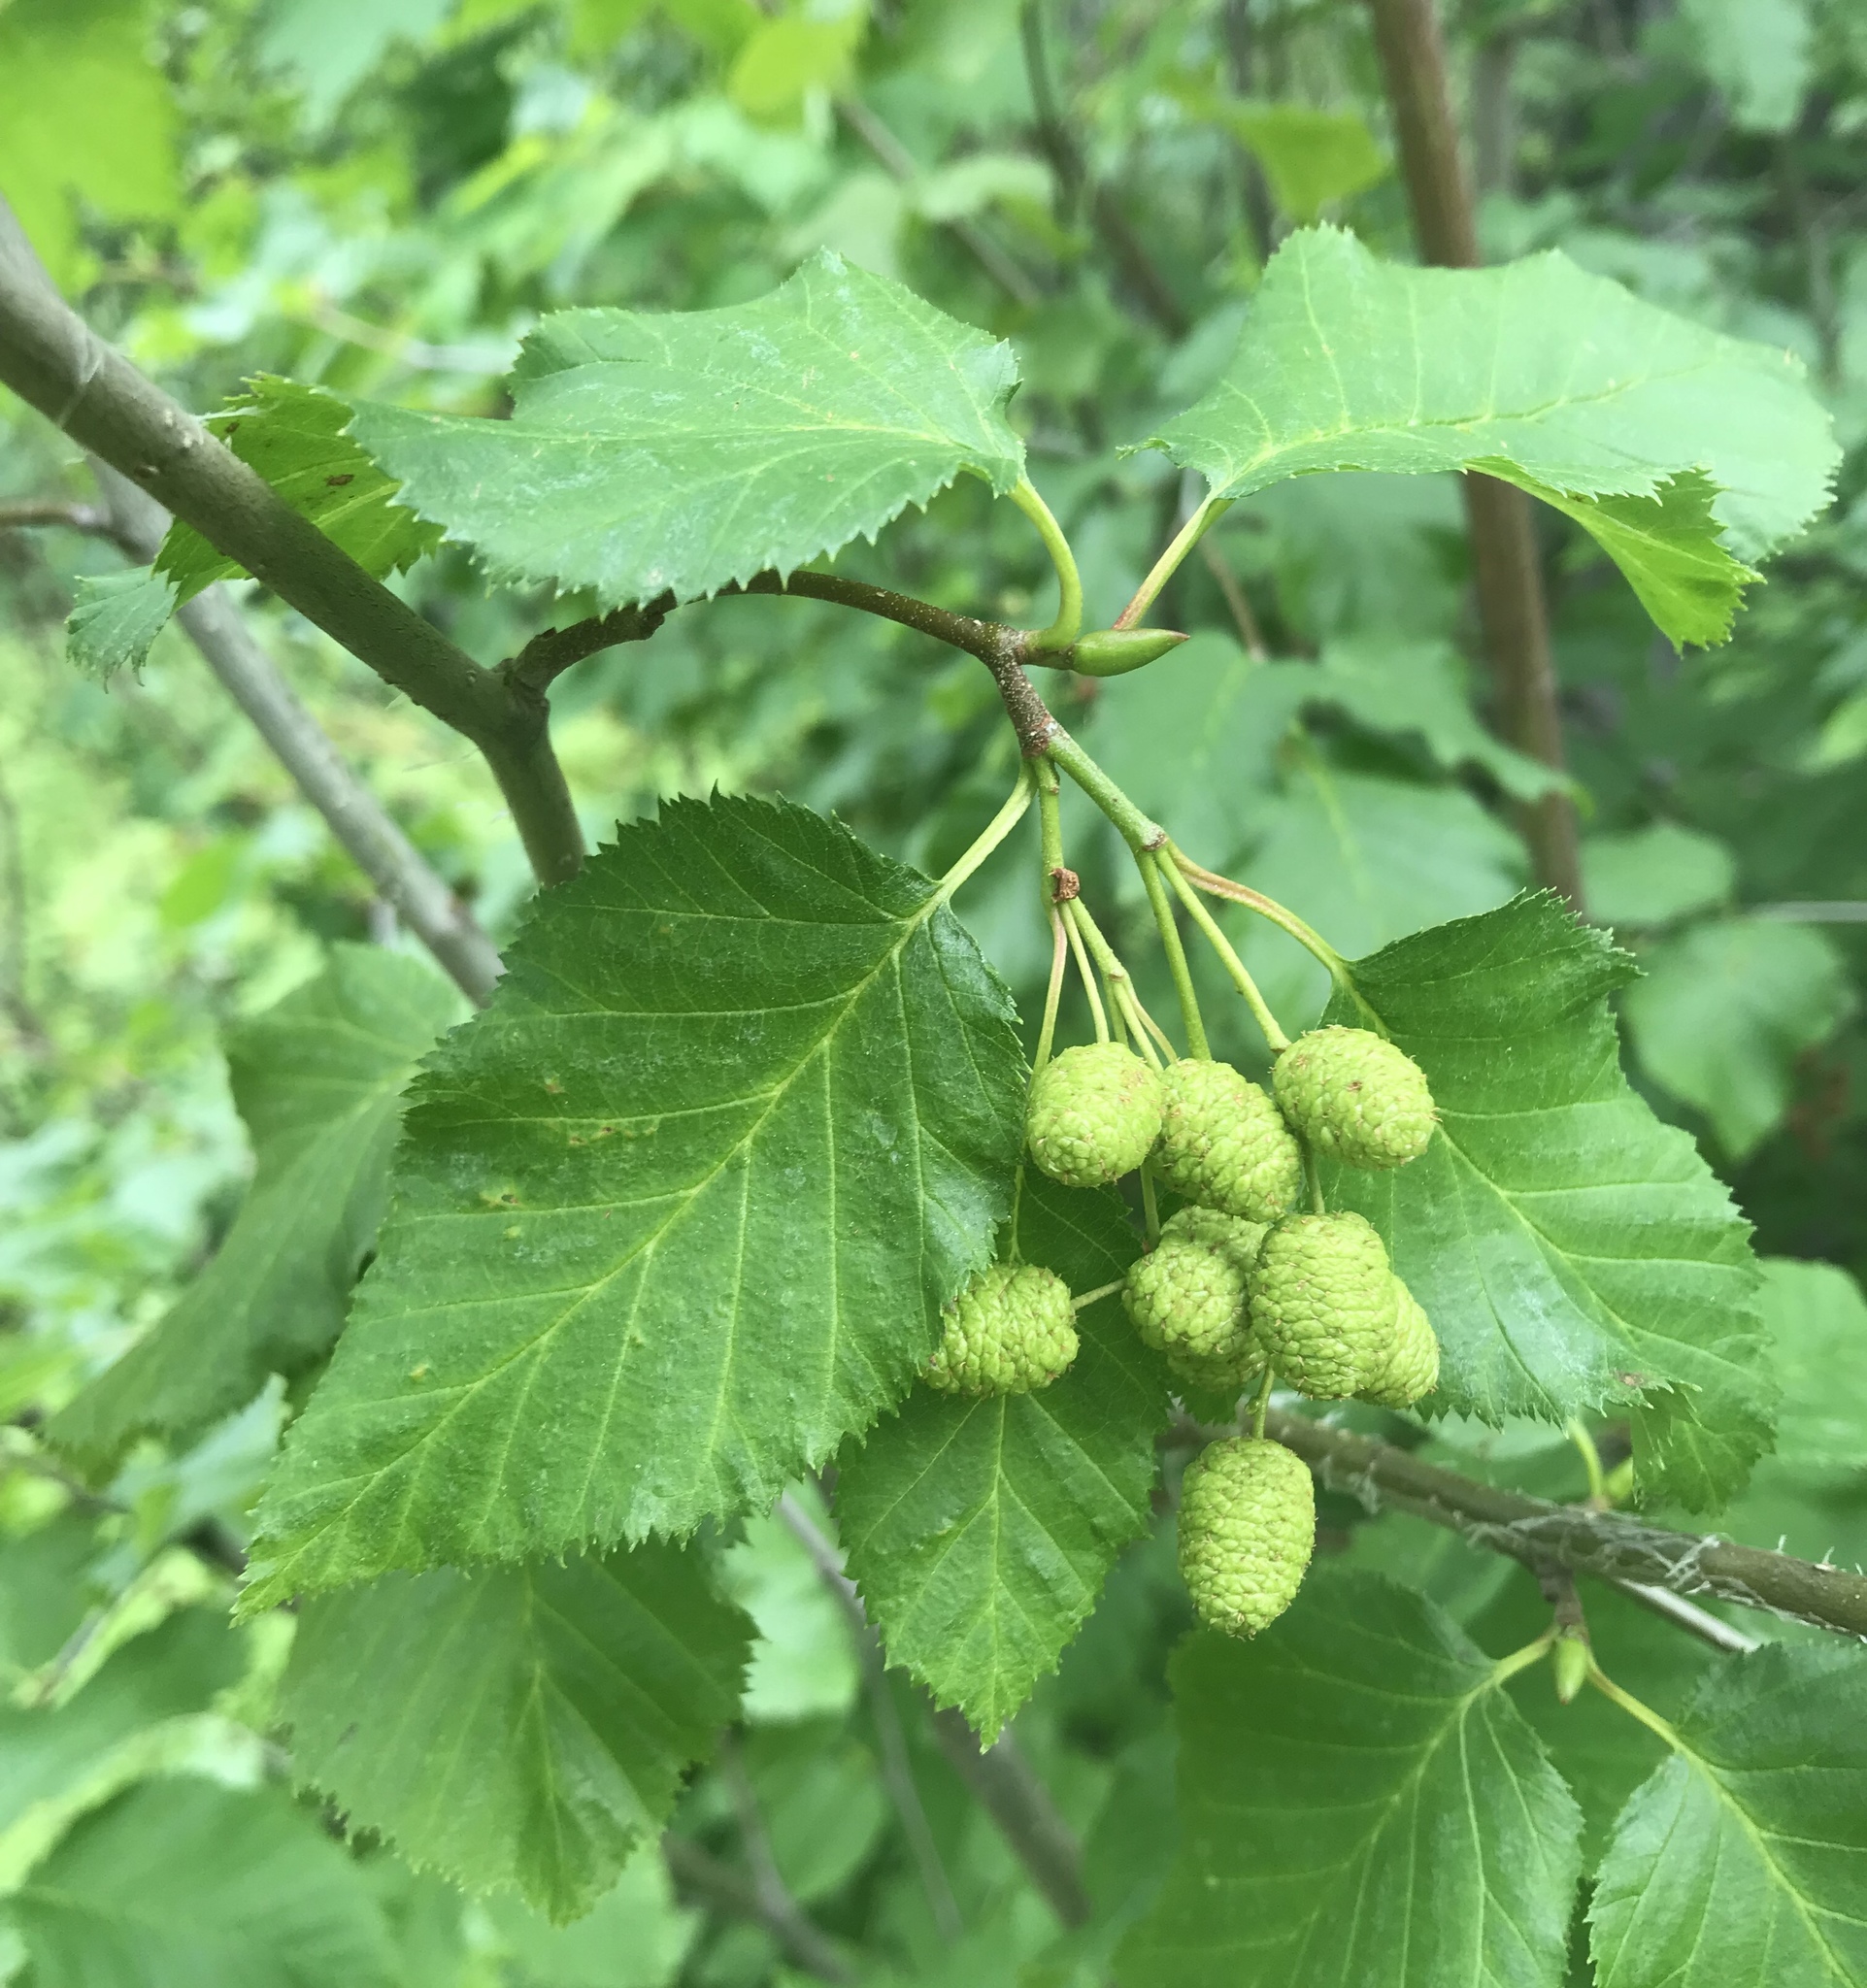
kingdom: Plantae
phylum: Tracheophyta
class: Magnoliopsida
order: Fagales
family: Betulaceae
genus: Alnus
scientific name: Alnus alnobetula
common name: Green alder
